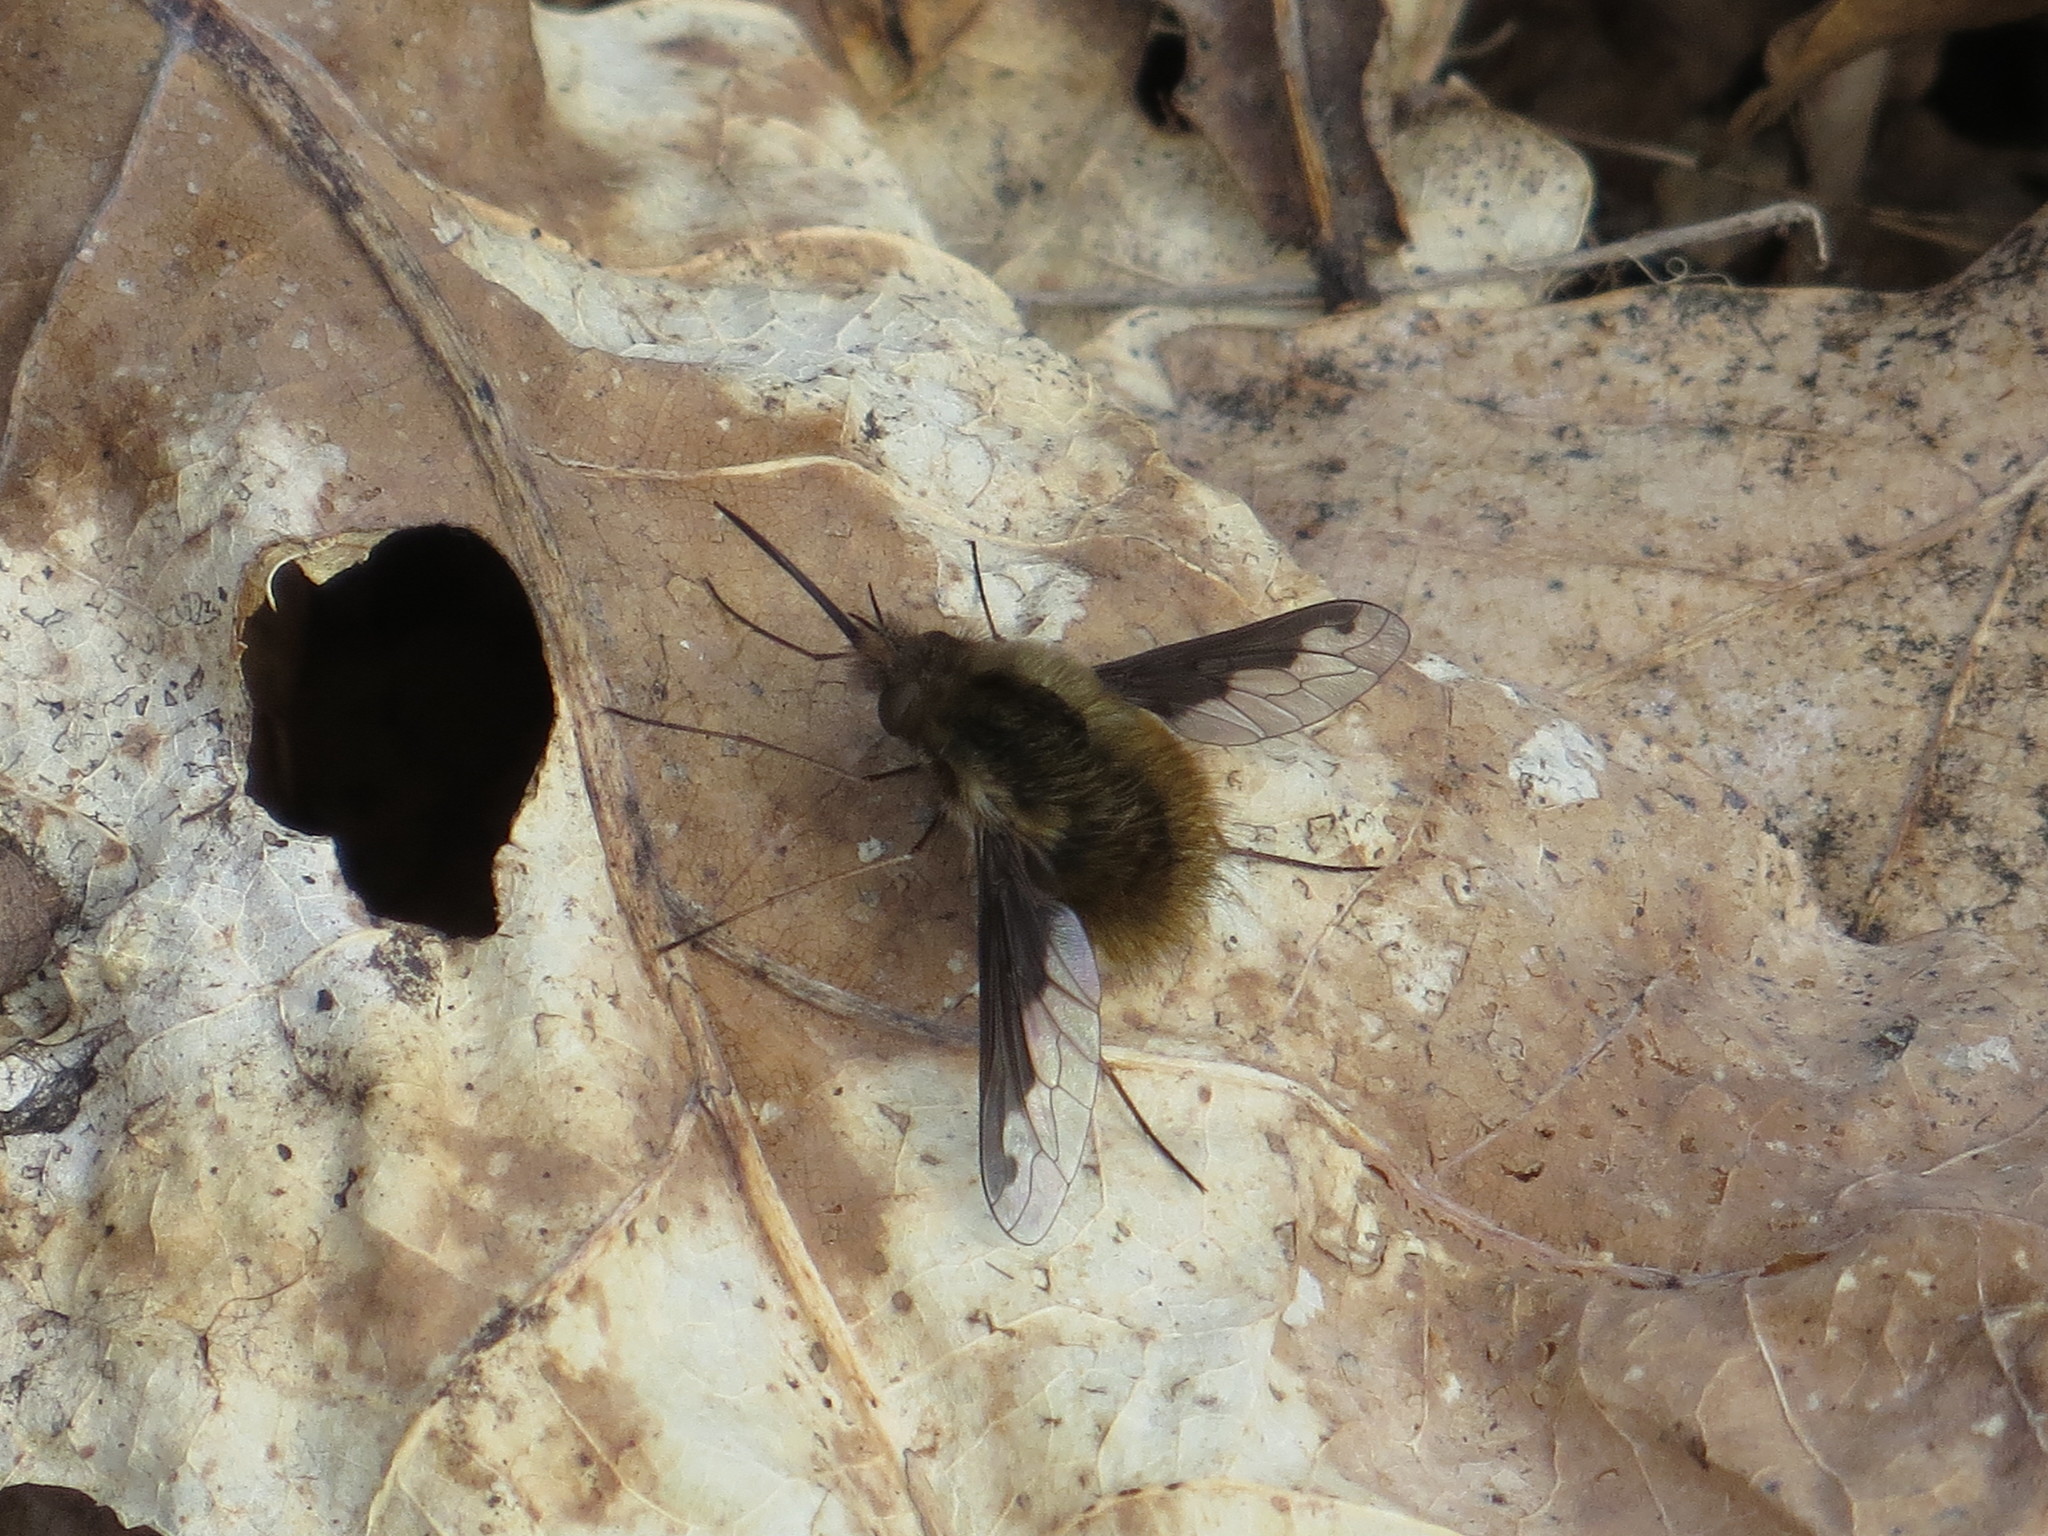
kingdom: Animalia
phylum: Arthropoda
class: Insecta
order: Diptera
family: Bombyliidae
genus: Bombylius
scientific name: Bombylius major
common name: Bee fly
